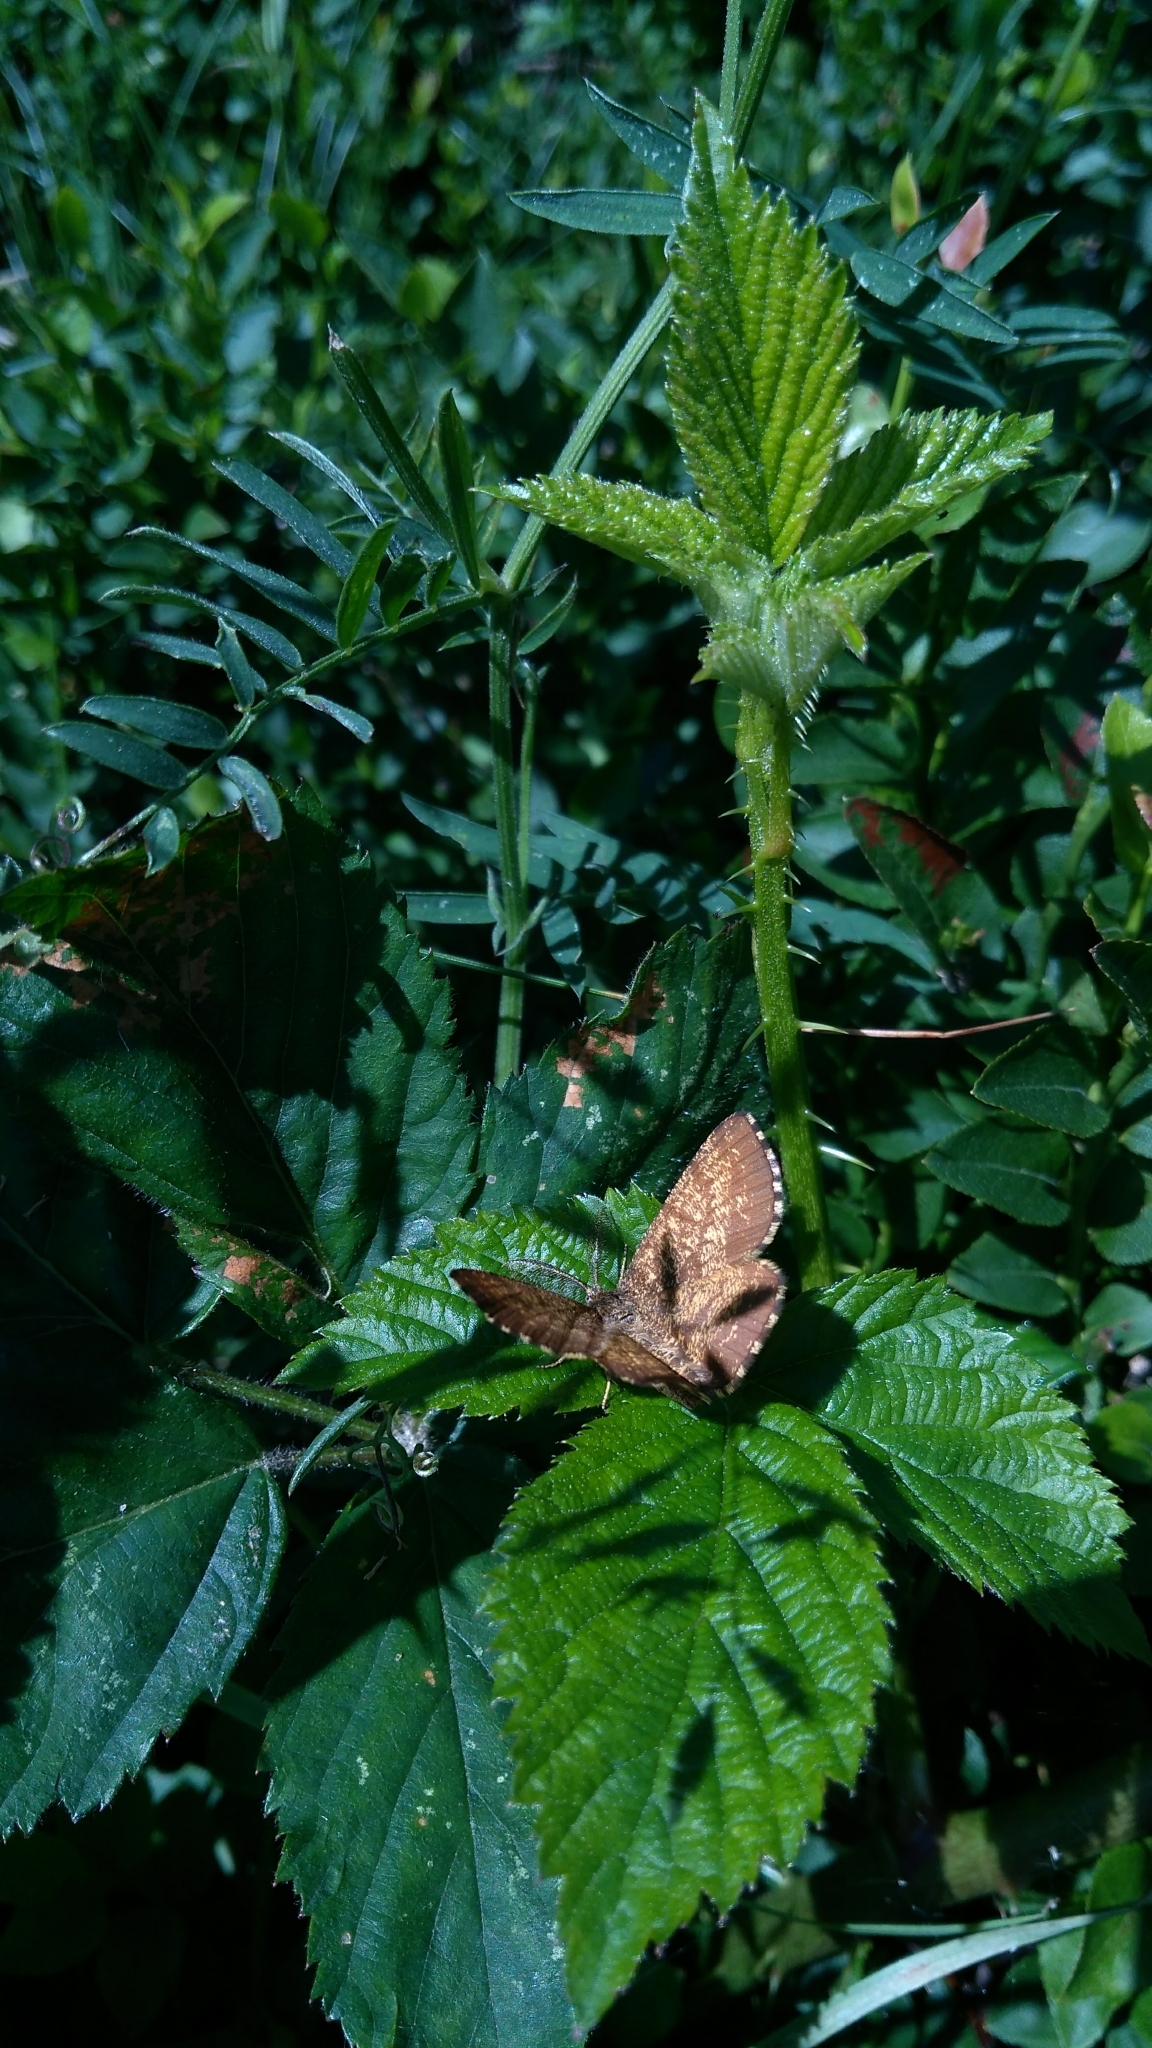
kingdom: Animalia
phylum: Arthropoda
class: Insecta
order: Lepidoptera
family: Geometridae
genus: Ematurga
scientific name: Ematurga atomaria
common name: Common heath
